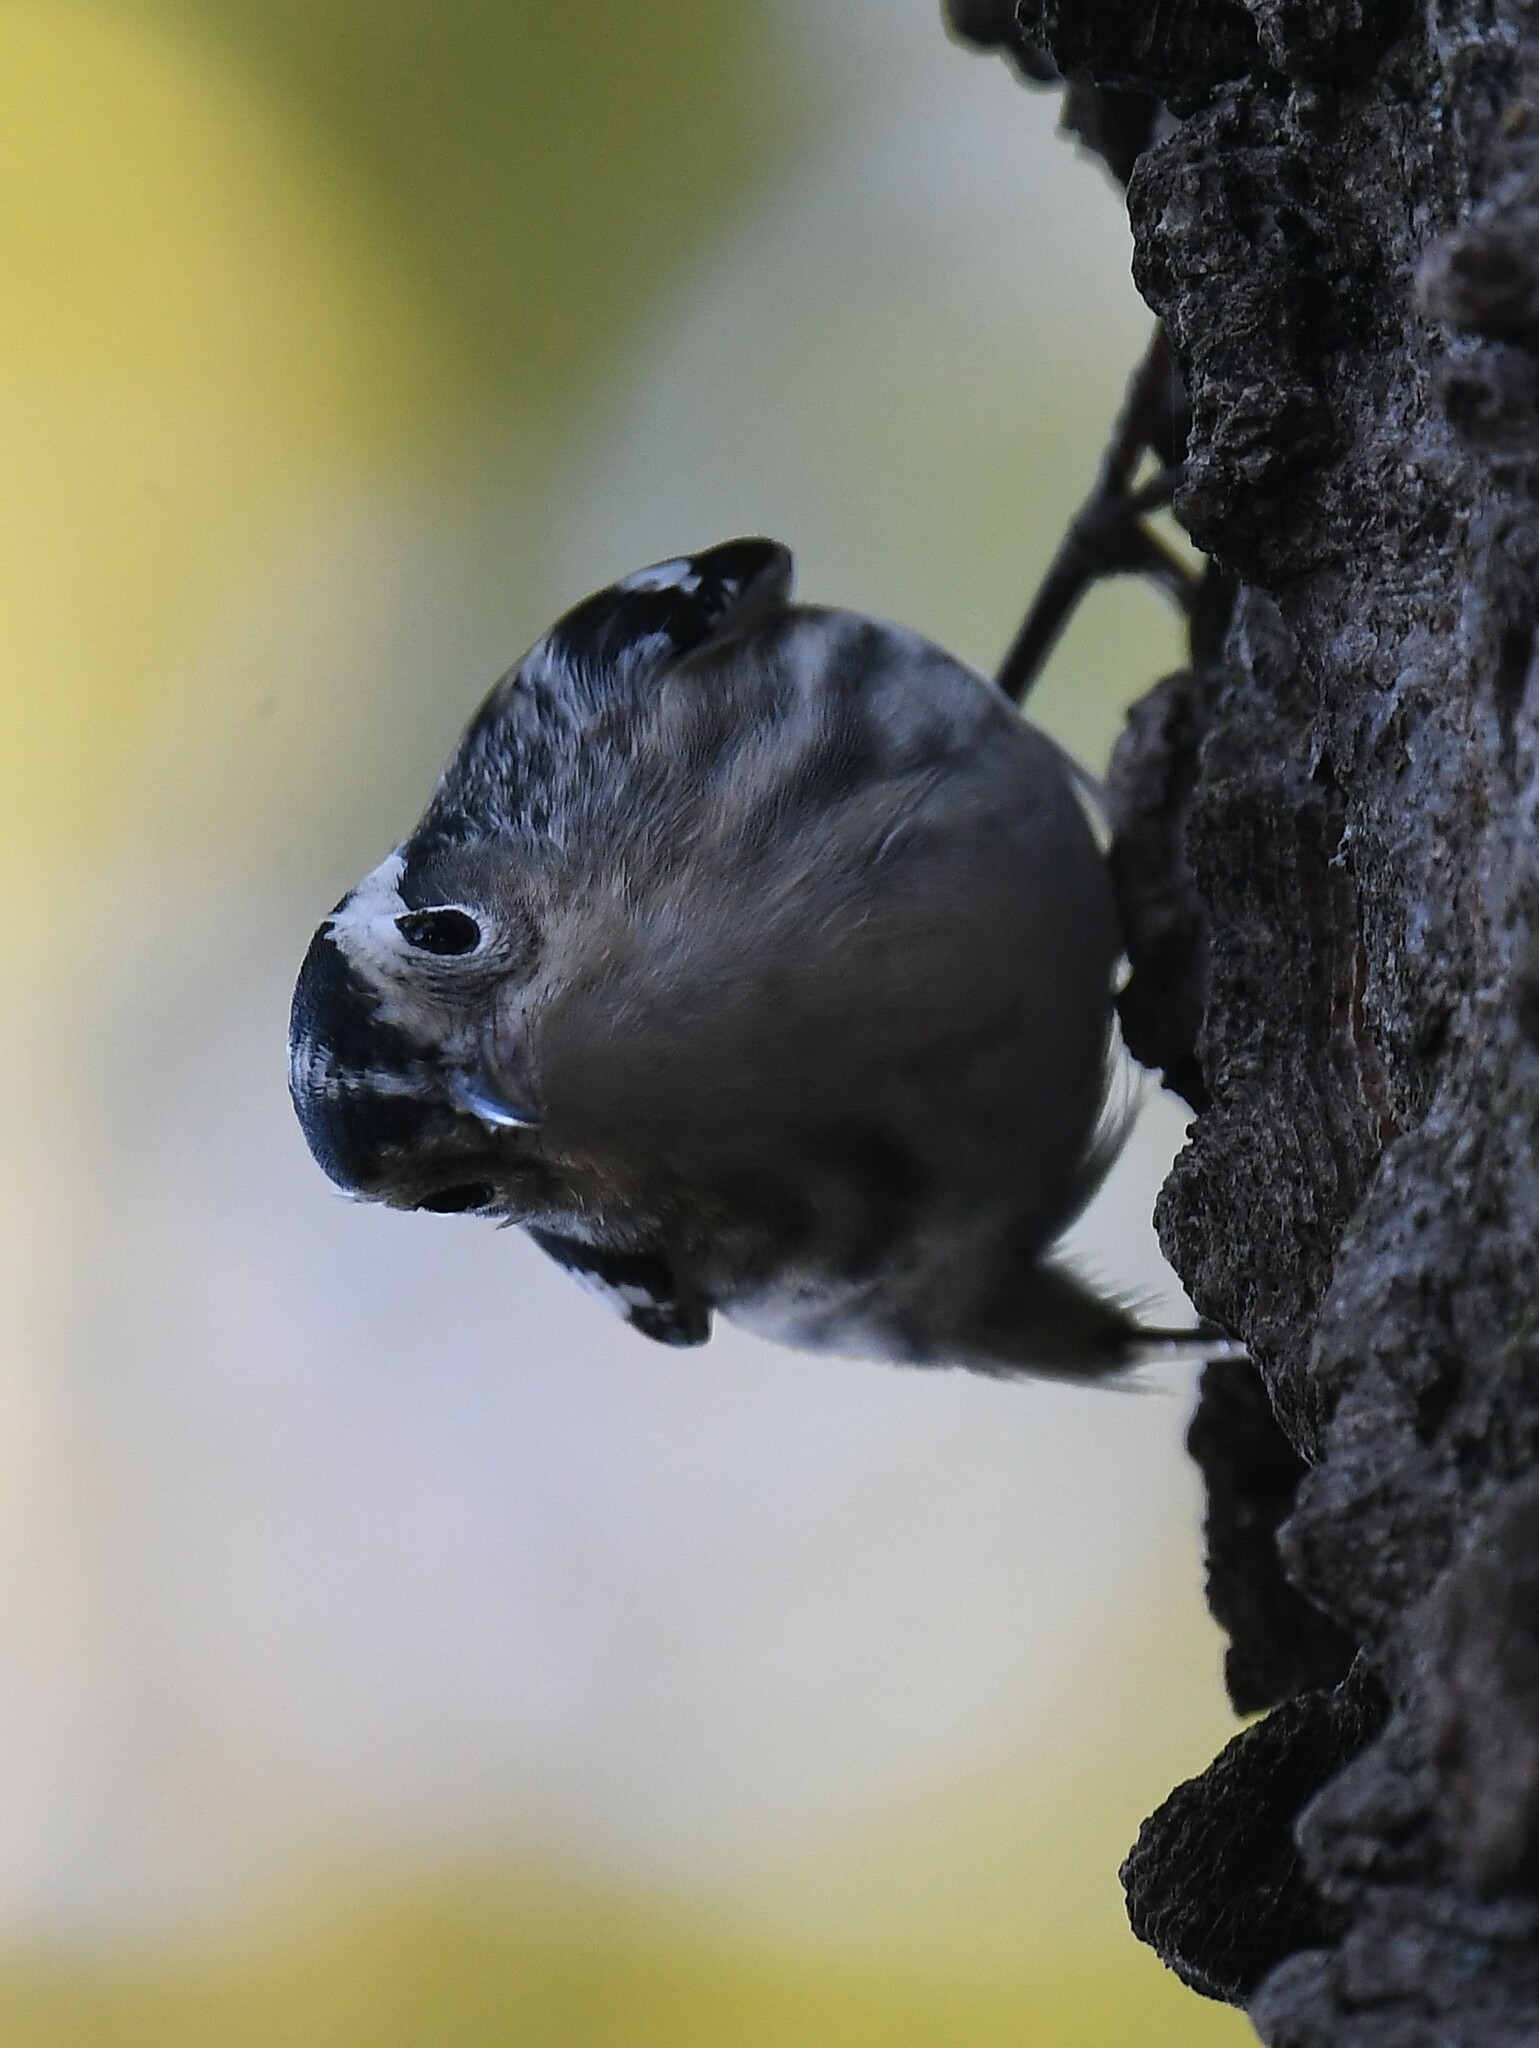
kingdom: Animalia
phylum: Chordata
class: Aves
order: Passeriformes
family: Parulidae
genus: Mniotilta
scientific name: Mniotilta varia
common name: Black-and-white warbler
